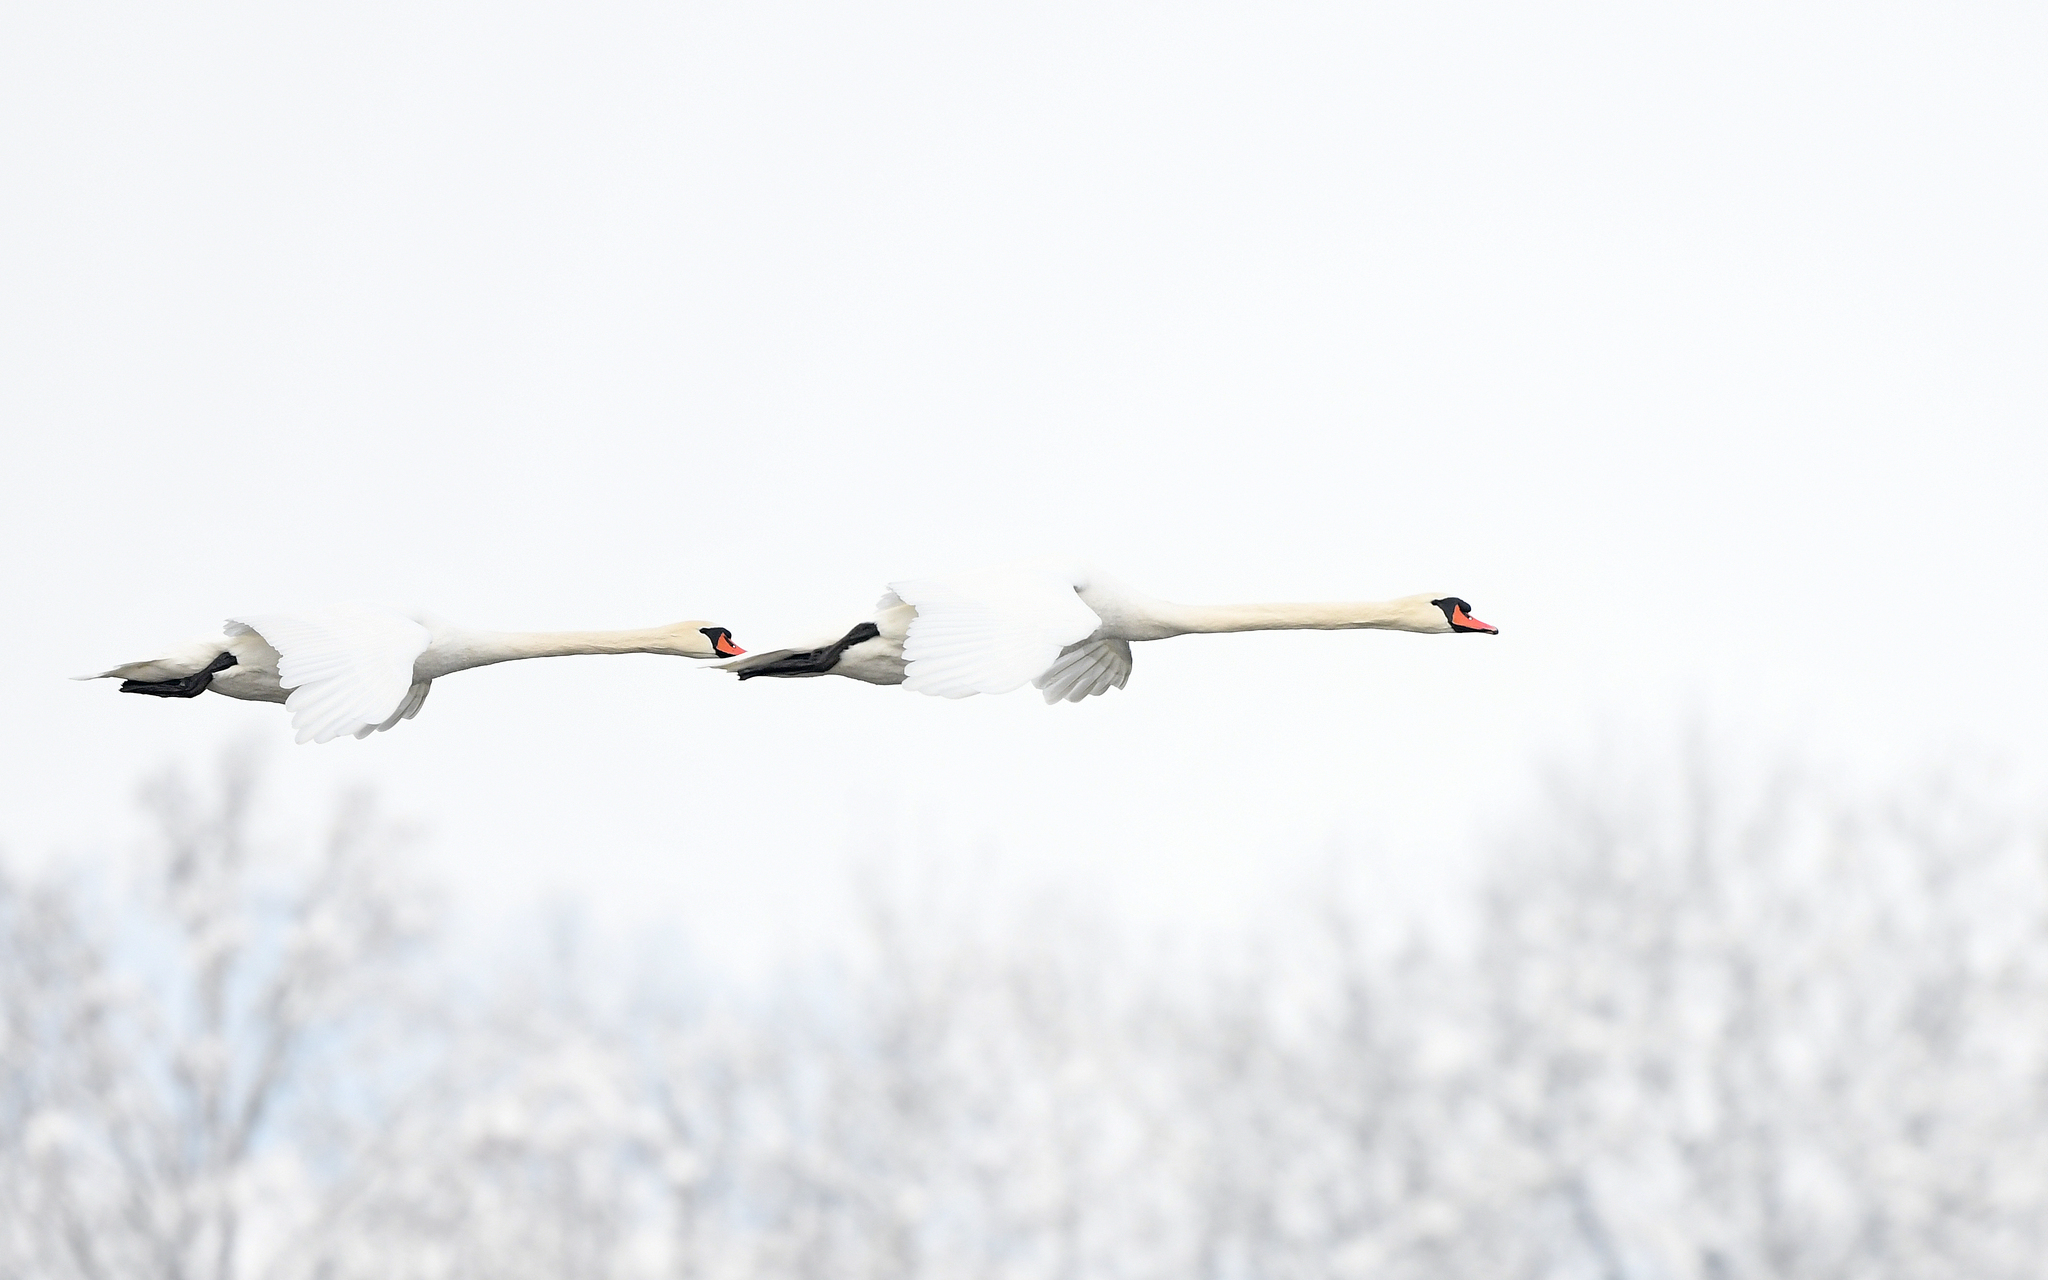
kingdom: Animalia
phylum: Chordata
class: Aves
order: Anseriformes
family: Anatidae
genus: Cygnus
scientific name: Cygnus olor
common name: Mute swan
